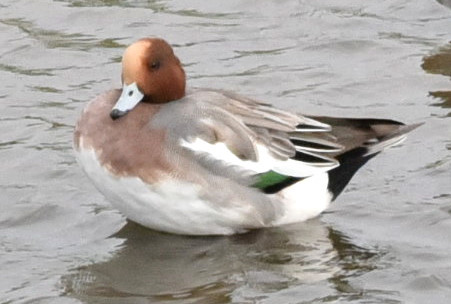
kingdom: Animalia
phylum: Chordata
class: Aves
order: Anseriformes
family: Anatidae
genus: Mareca
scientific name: Mareca penelope
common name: Eurasian wigeon
